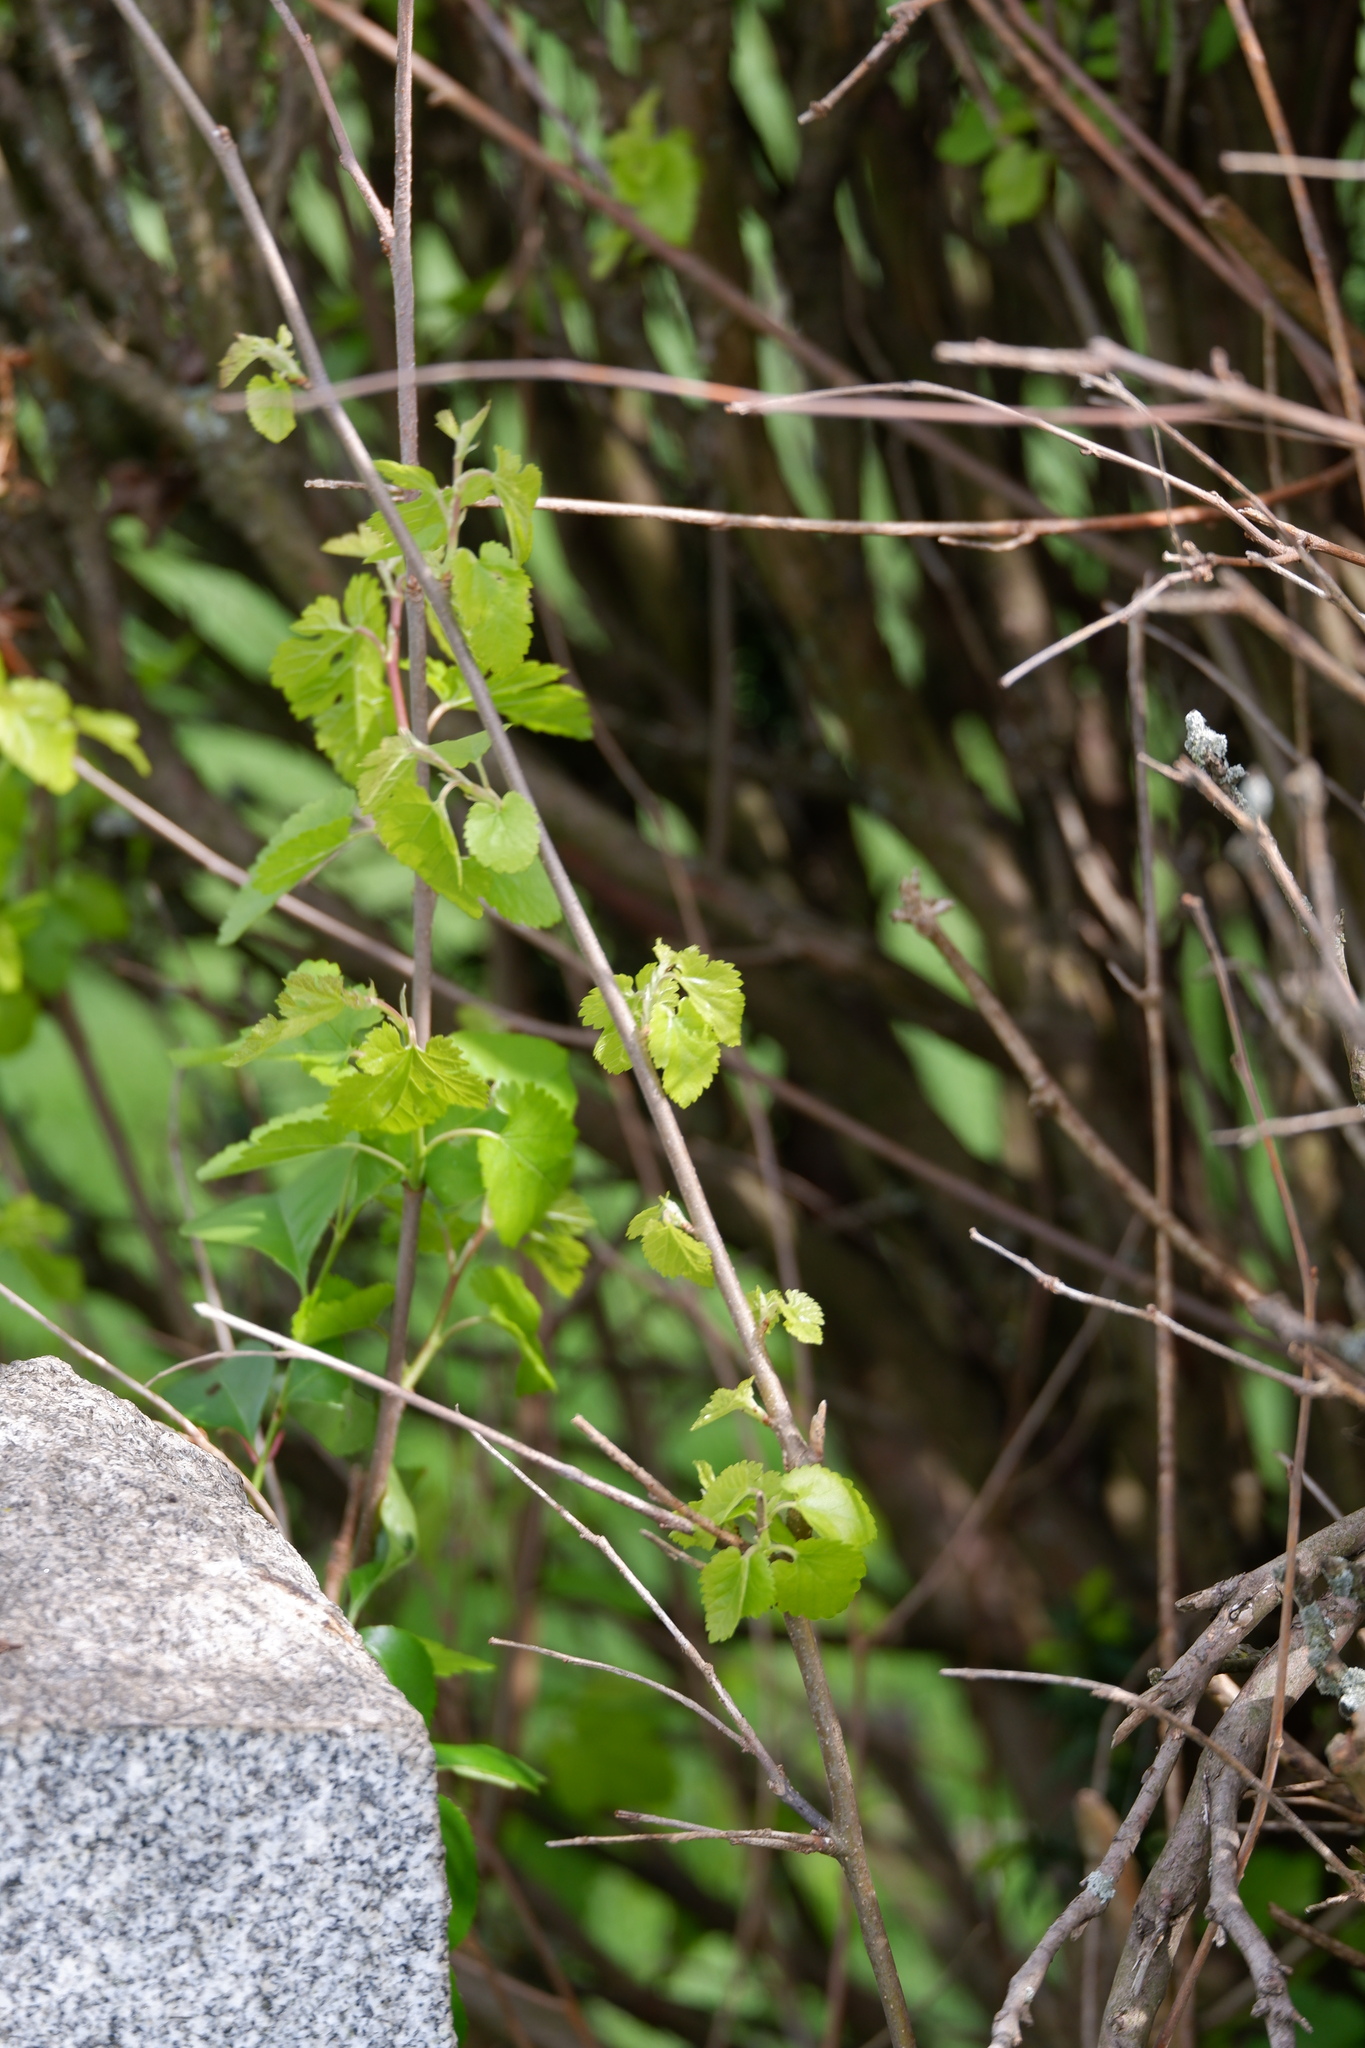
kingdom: Plantae
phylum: Tracheophyta
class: Magnoliopsida
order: Rosales
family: Moraceae
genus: Morus
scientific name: Morus alba
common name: White mulberry
